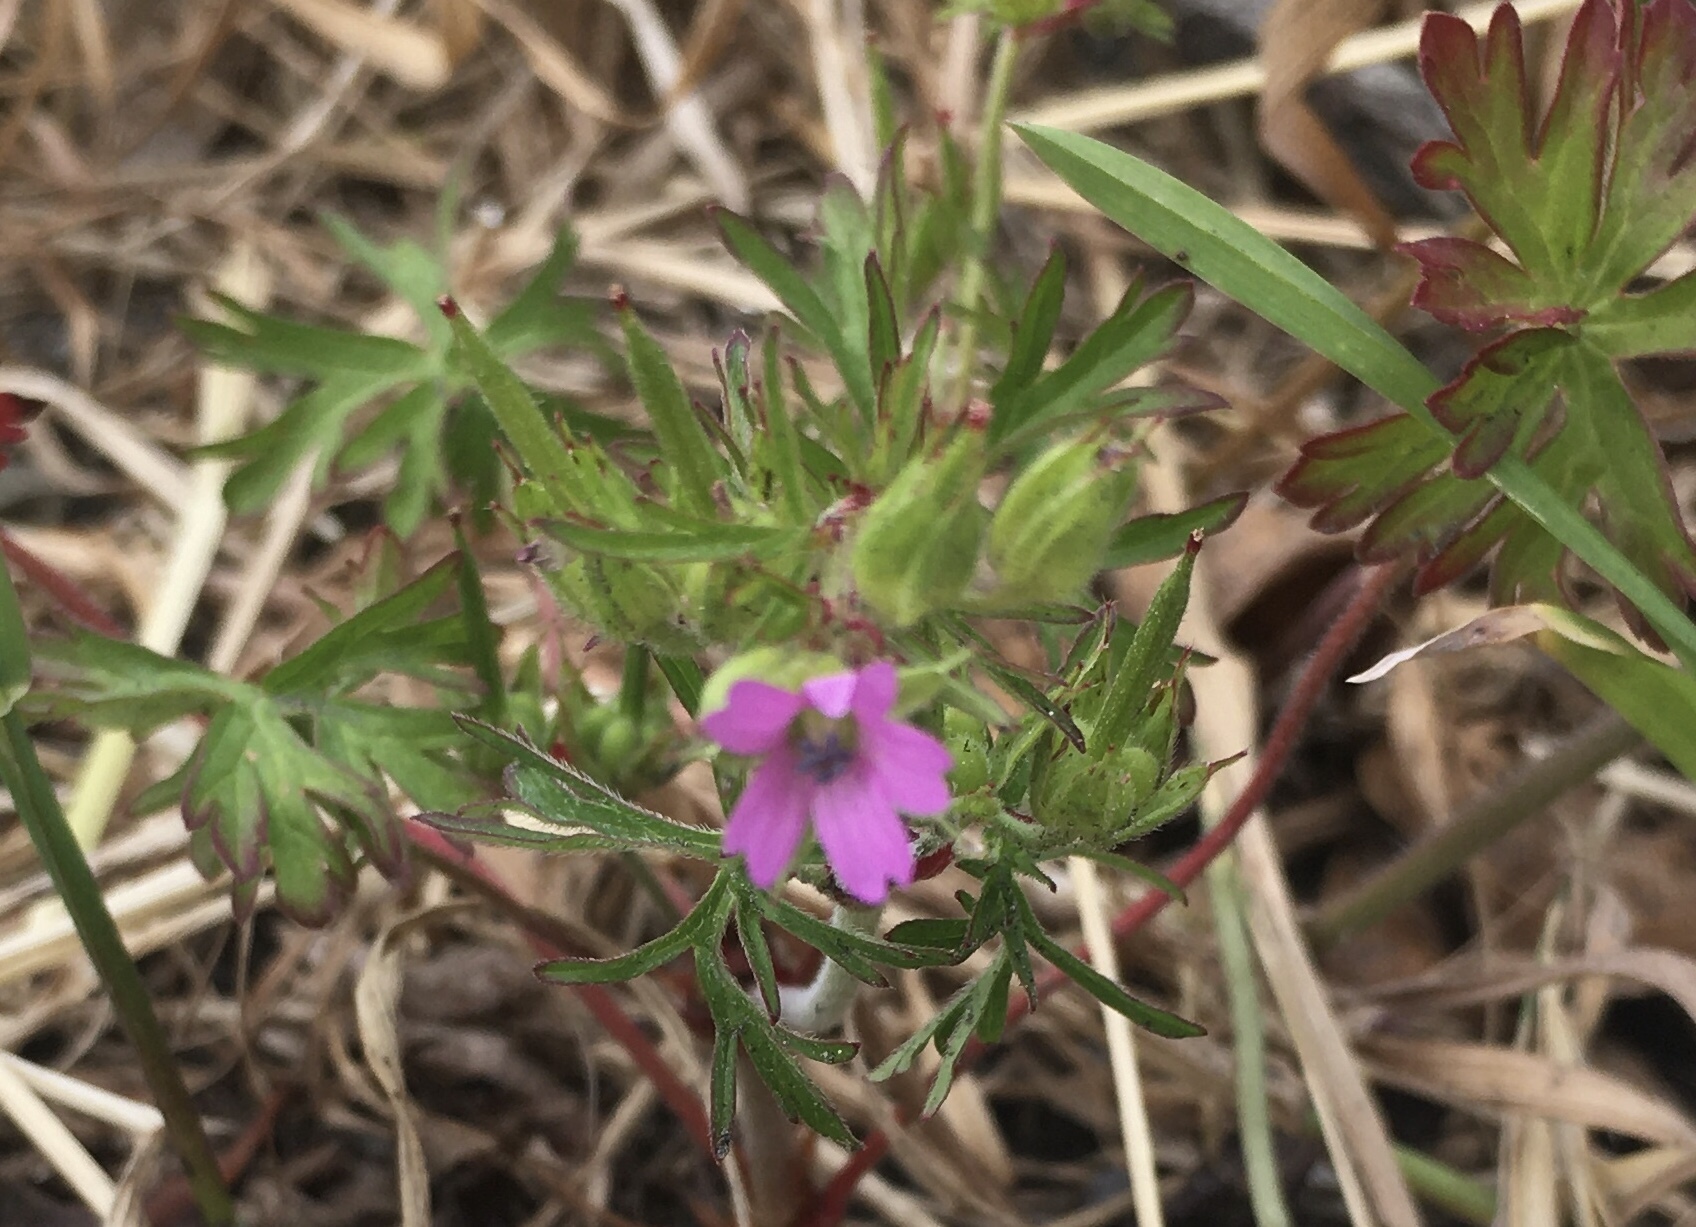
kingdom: Plantae
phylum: Tracheophyta
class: Magnoliopsida
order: Geraniales
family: Geraniaceae
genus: Geranium
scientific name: Geranium dissectum
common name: Cut-leaved crane's-bill
